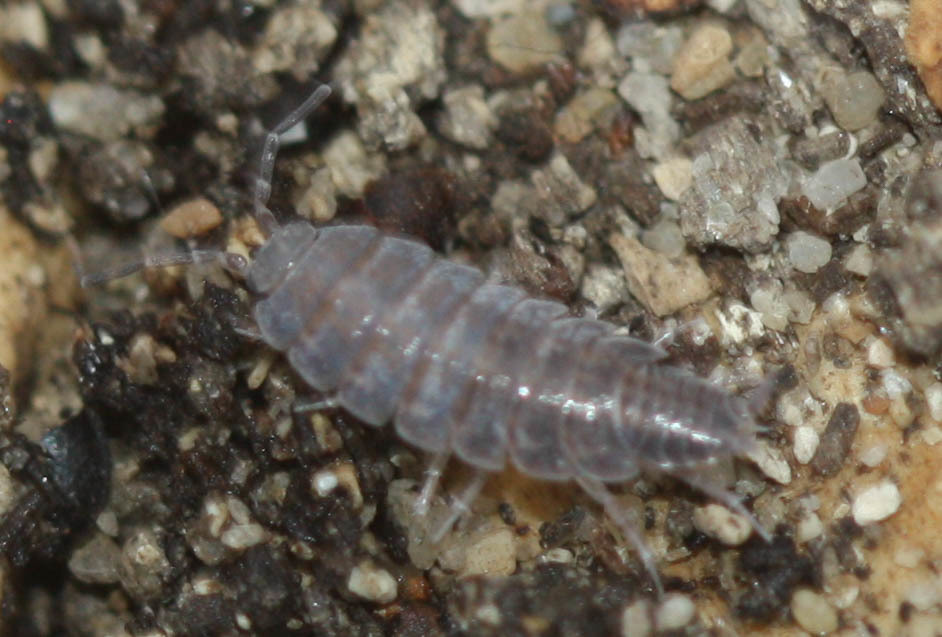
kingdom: Animalia
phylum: Arthropoda
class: Malacostraca
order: Isopoda
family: Porcellionidae
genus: Porcellionides
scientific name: Porcellionides sexfasciatus
